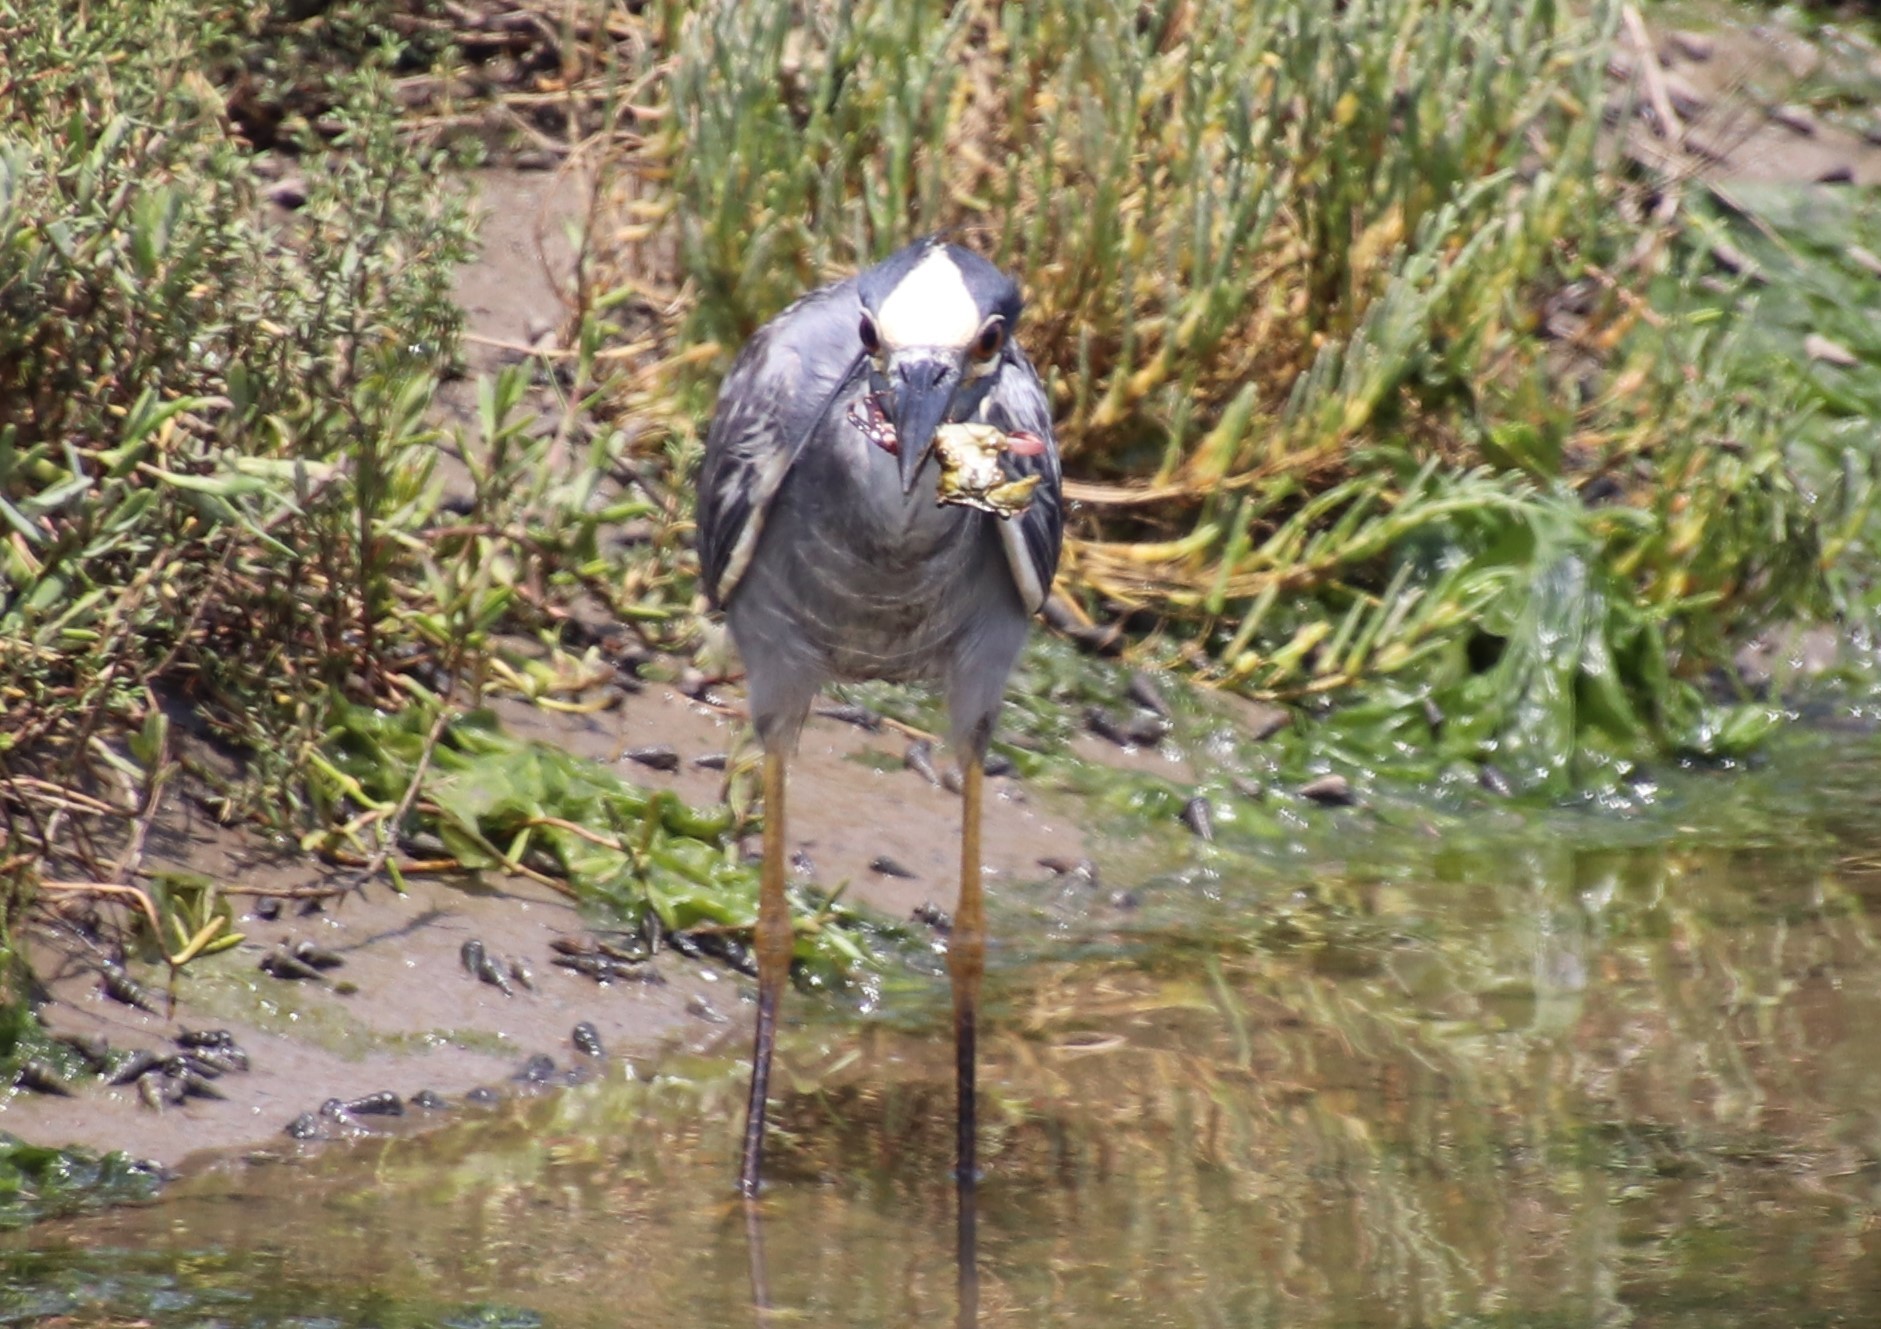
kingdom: Animalia
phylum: Chordata
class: Aves
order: Pelecaniformes
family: Ardeidae
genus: Nyctanassa
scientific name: Nyctanassa violacea
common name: Yellow-crowned night heron
